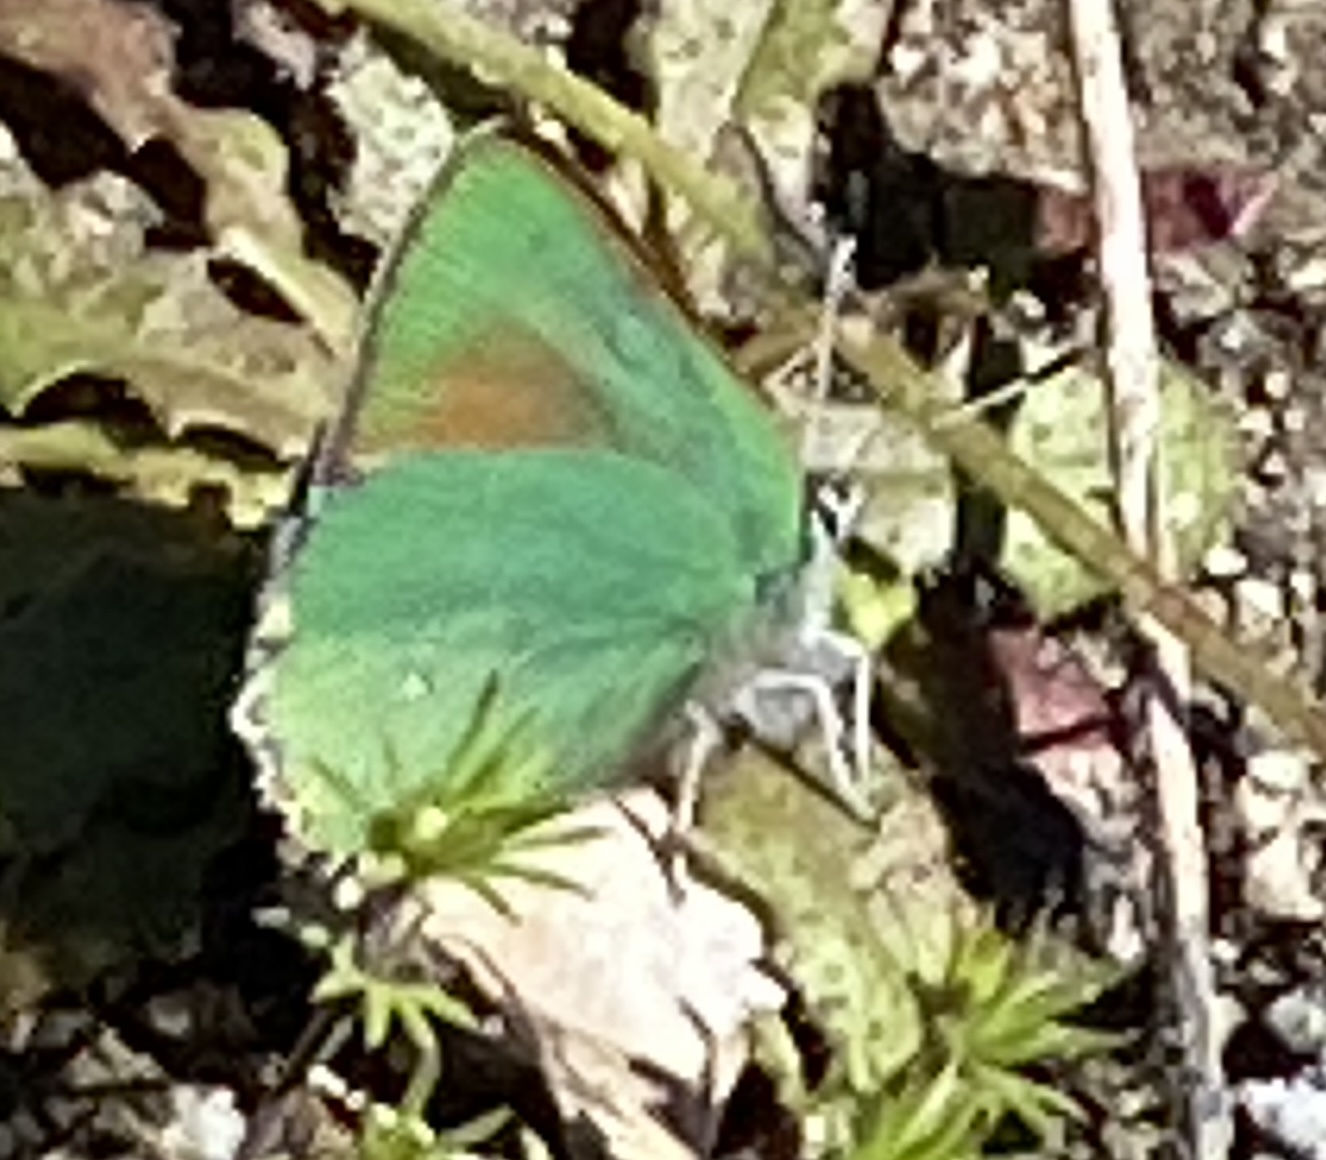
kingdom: Animalia
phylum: Arthropoda
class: Insecta
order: Lepidoptera
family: Lycaenidae
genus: Callophrys
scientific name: Callophrys dumetorum
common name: Bramble hairstreak
